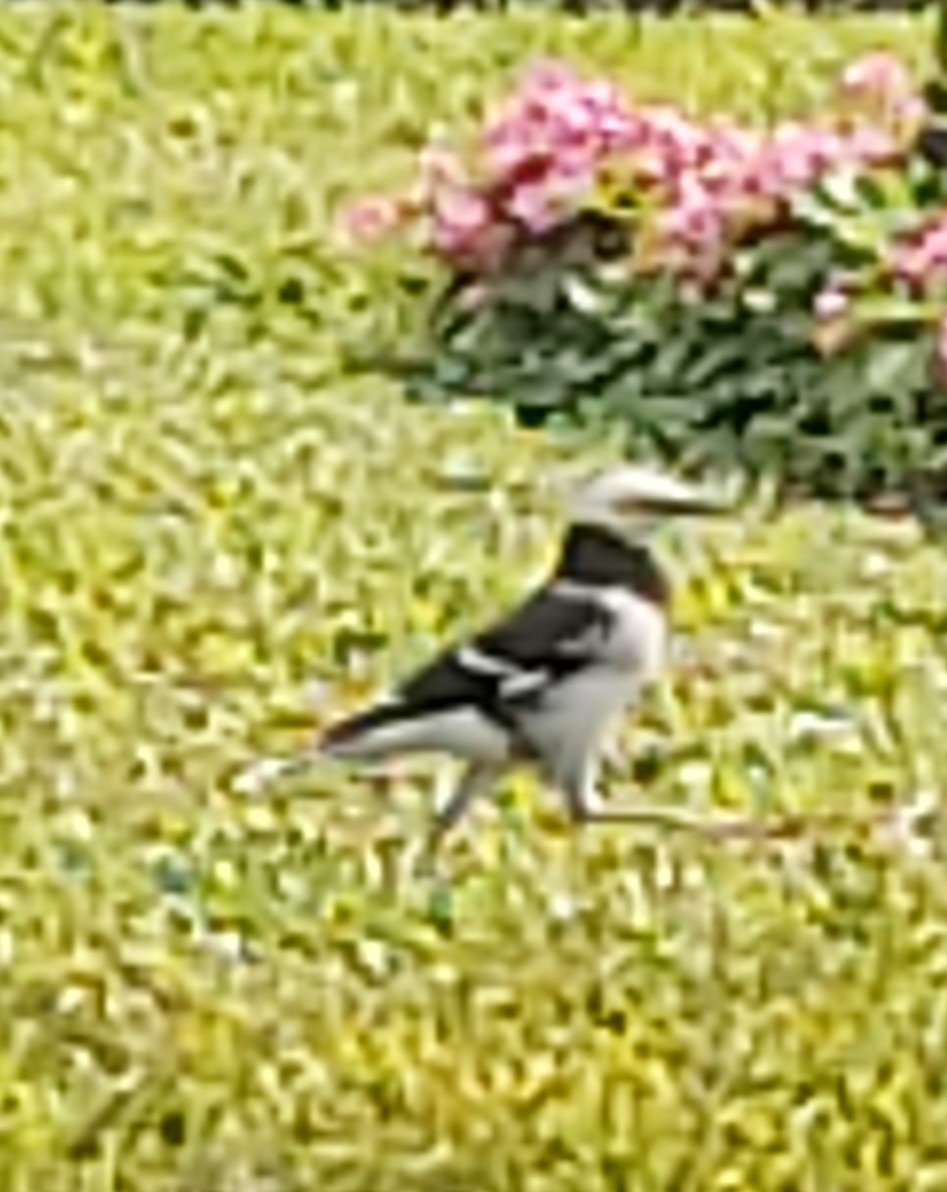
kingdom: Animalia
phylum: Chordata
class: Aves
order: Passeriformes
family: Sturnidae
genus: Gracupica
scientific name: Gracupica nigricollis
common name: Black-collared starling
